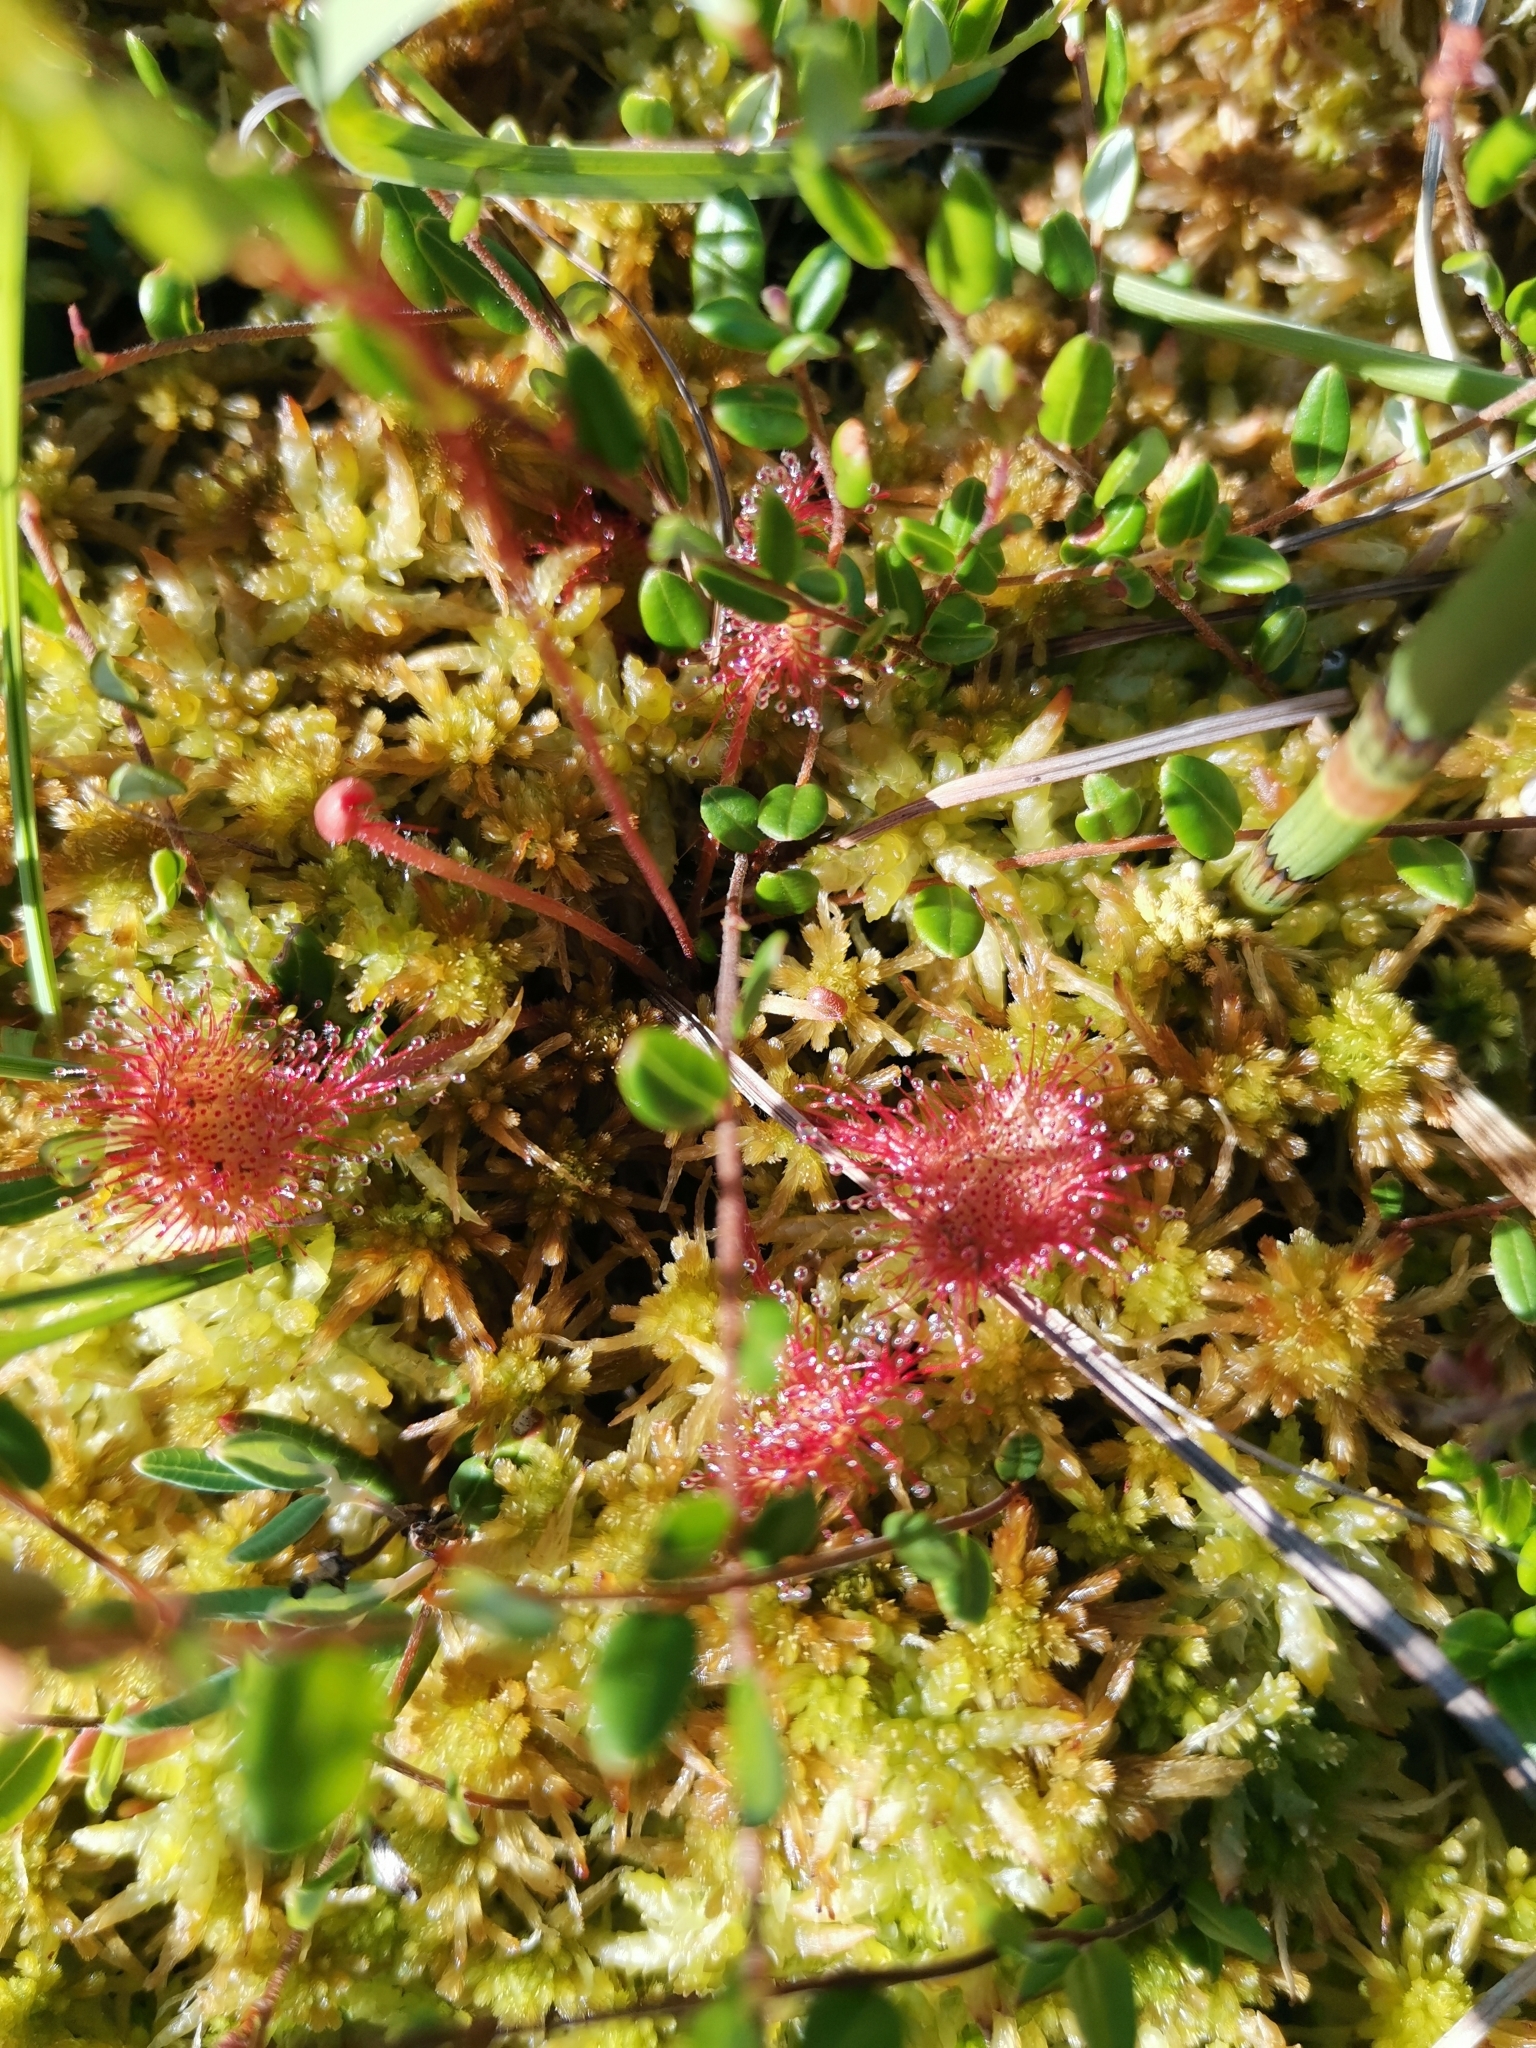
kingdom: Plantae
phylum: Tracheophyta
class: Magnoliopsida
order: Caryophyllales
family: Droseraceae
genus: Drosera
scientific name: Drosera rotundifolia
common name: Round-leaved sundew
